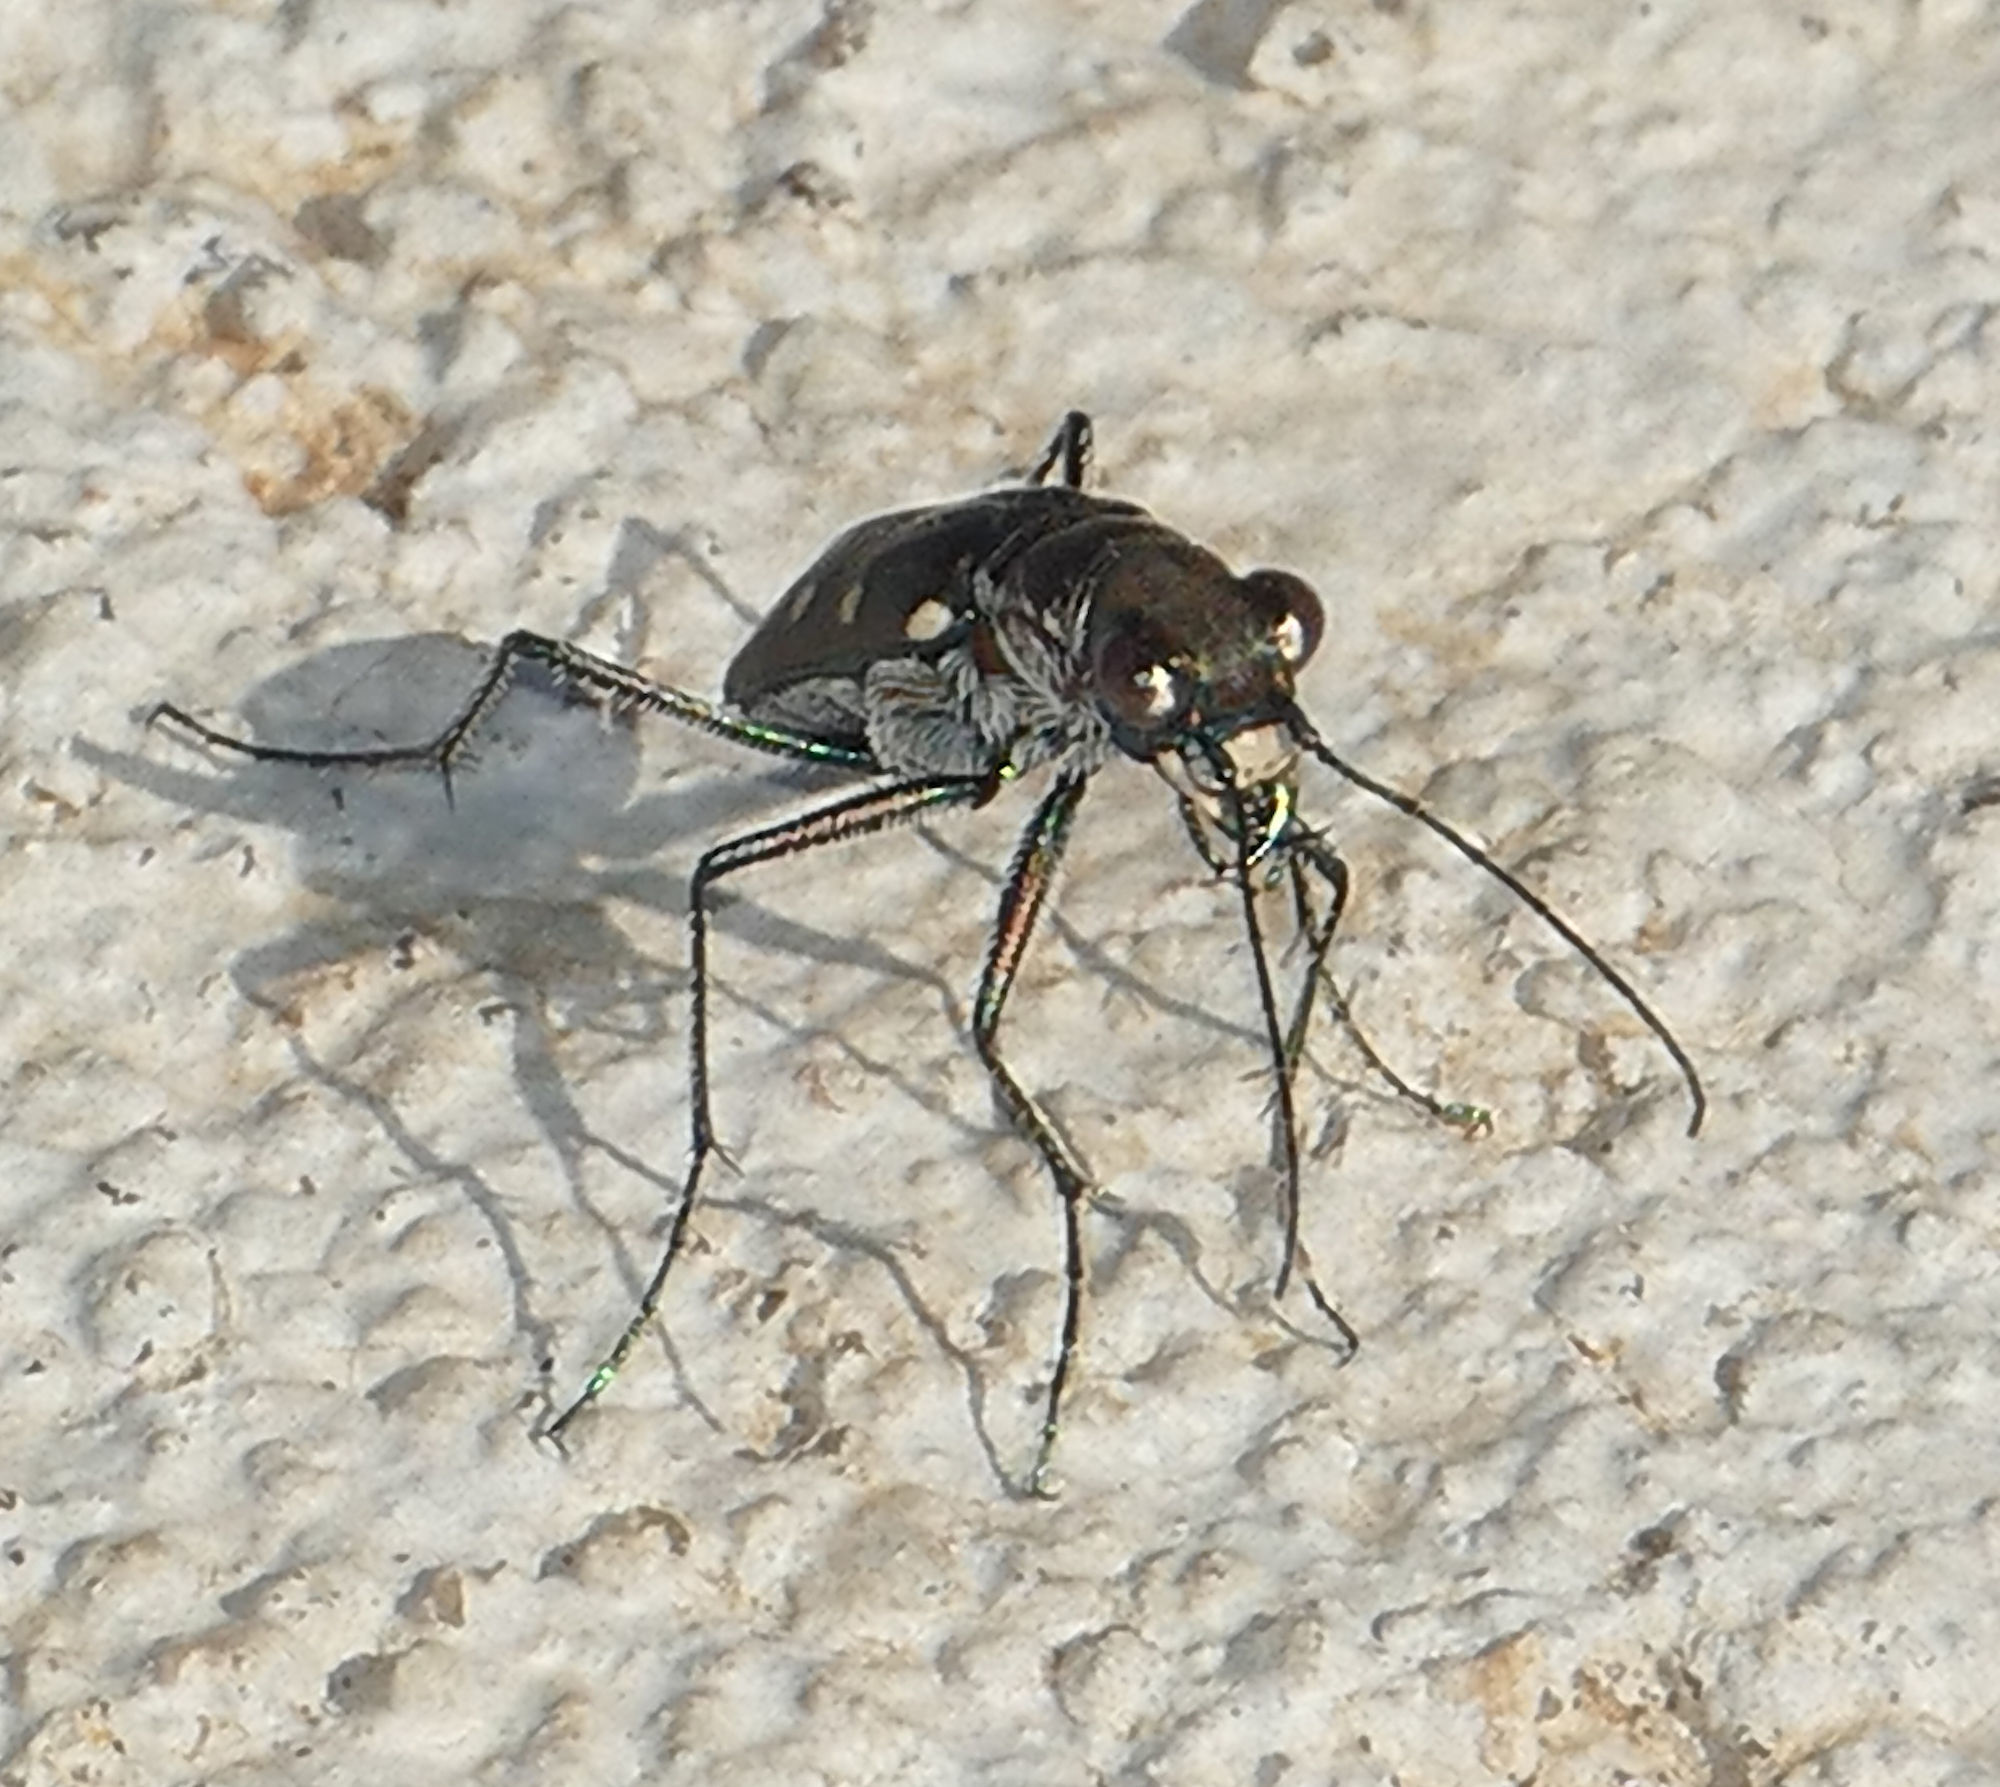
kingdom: Animalia
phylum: Arthropoda
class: Insecta
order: Coleoptera
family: Carabidae
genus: Cicindela
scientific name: Cicindela ocellata
